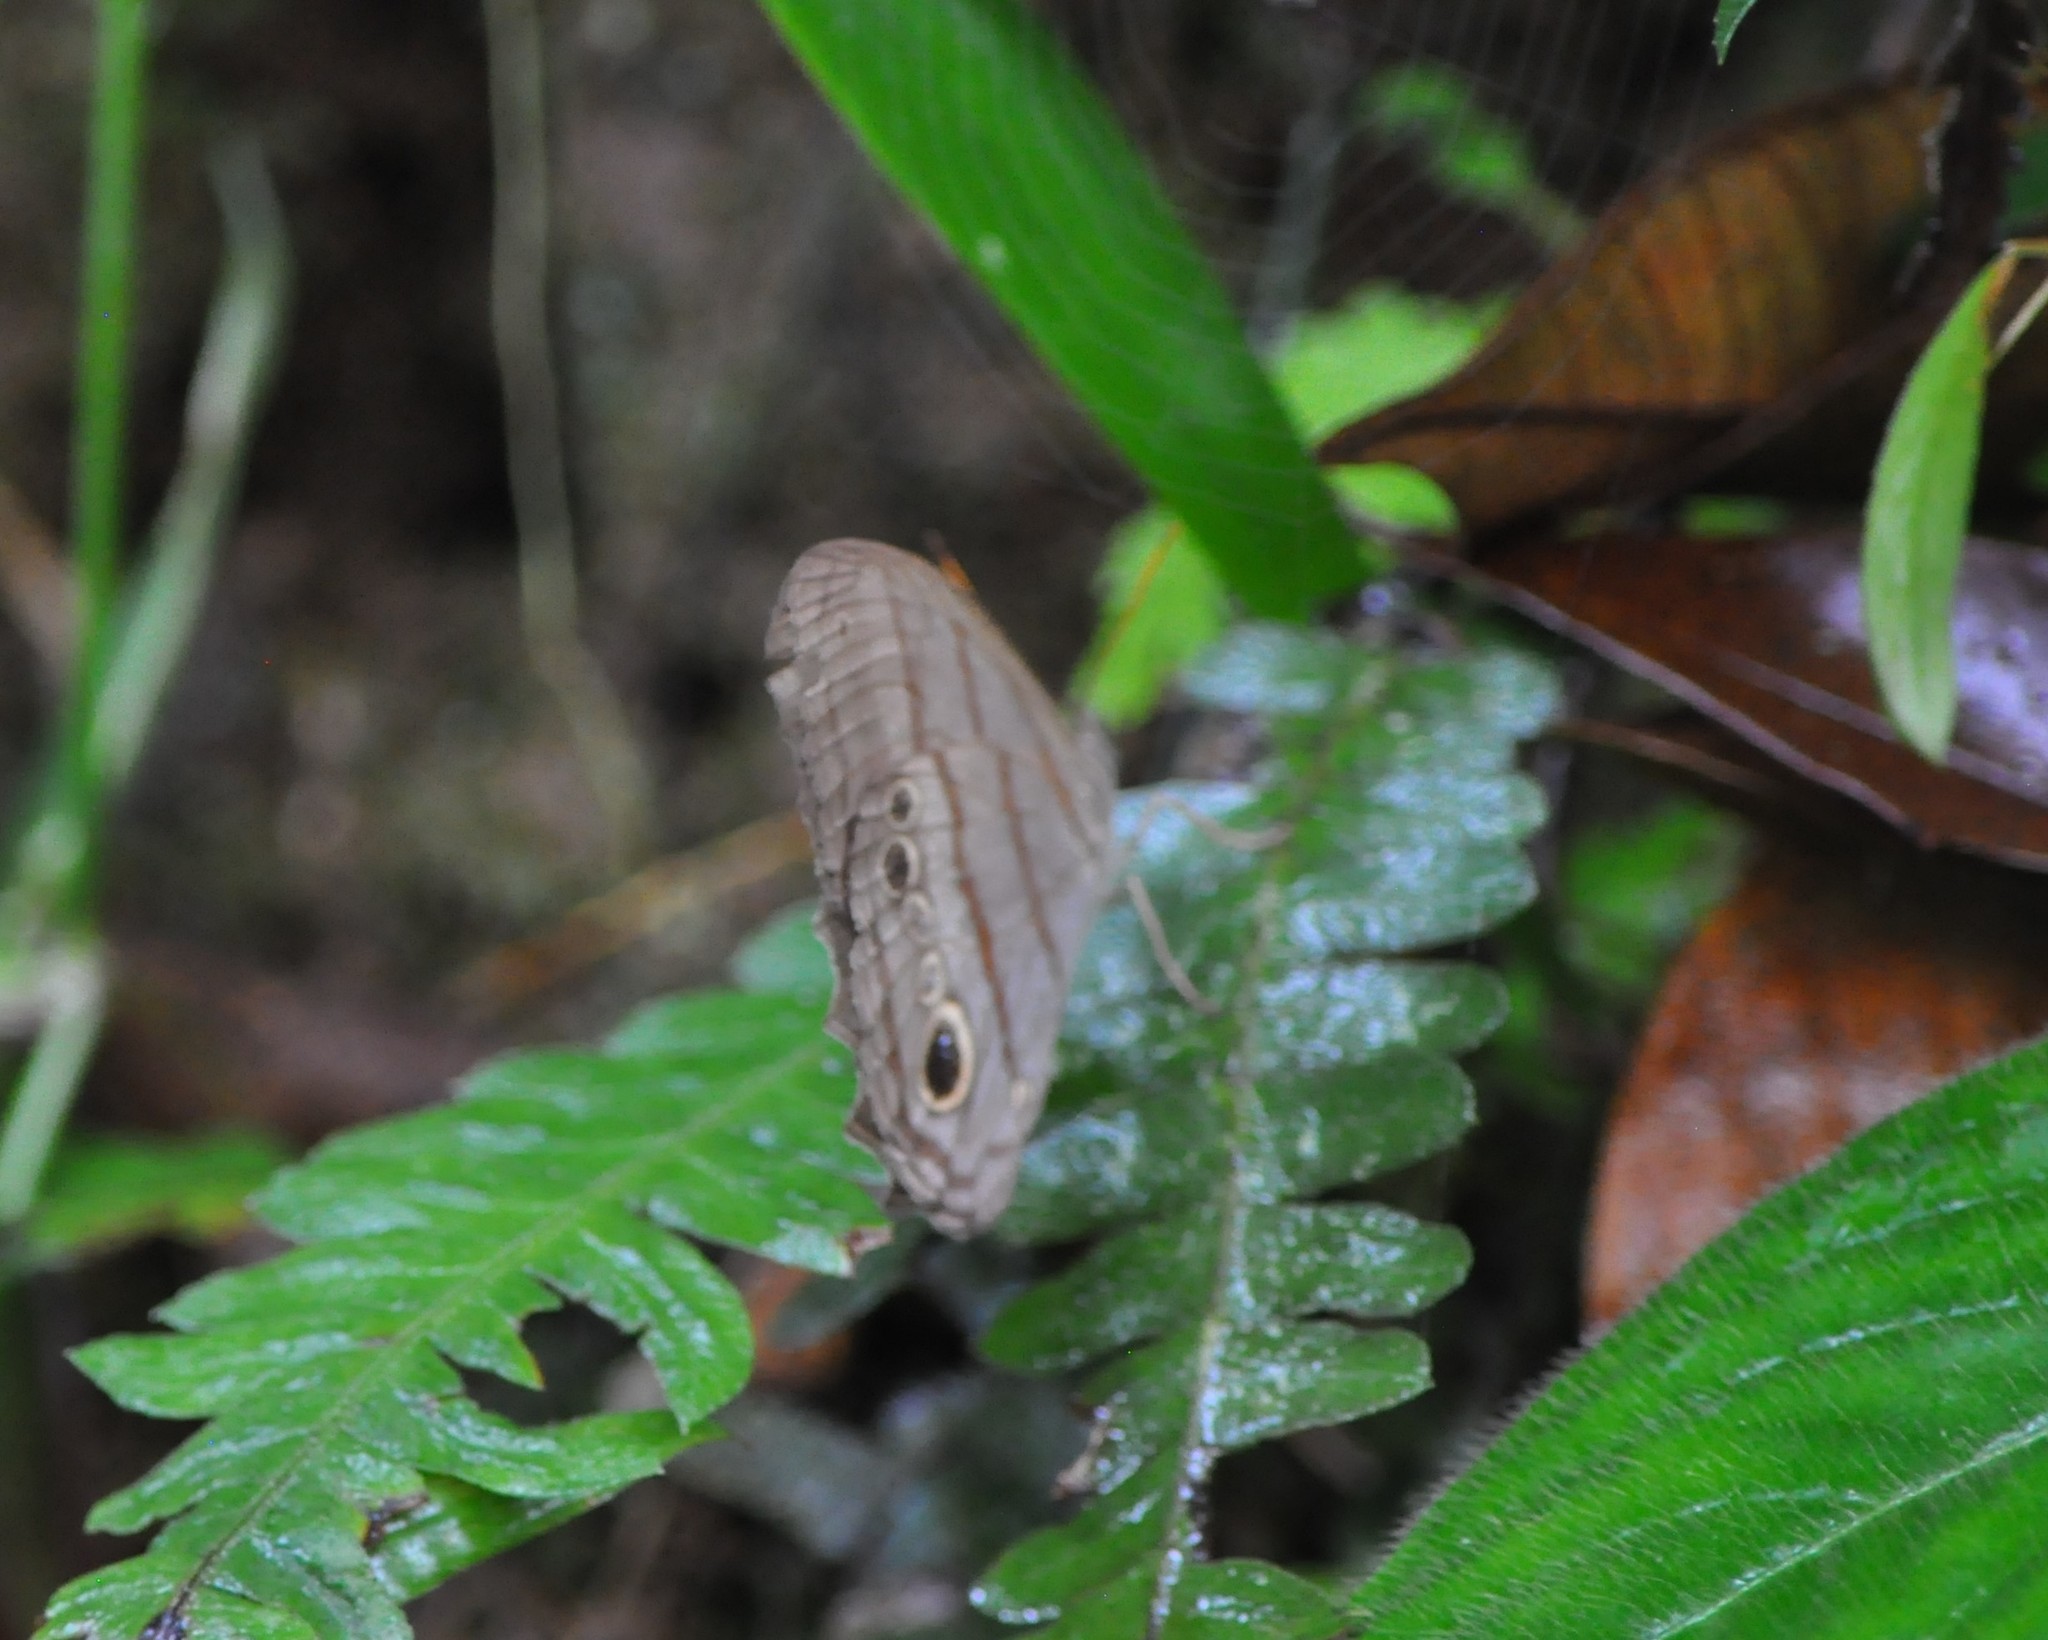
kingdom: Animalia
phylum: Arthropoda
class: Insecta
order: Lepidoptera
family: Nymphalidae
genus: Magneuptychia
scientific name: Magneuptychia libye
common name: Blue-gray satyr
